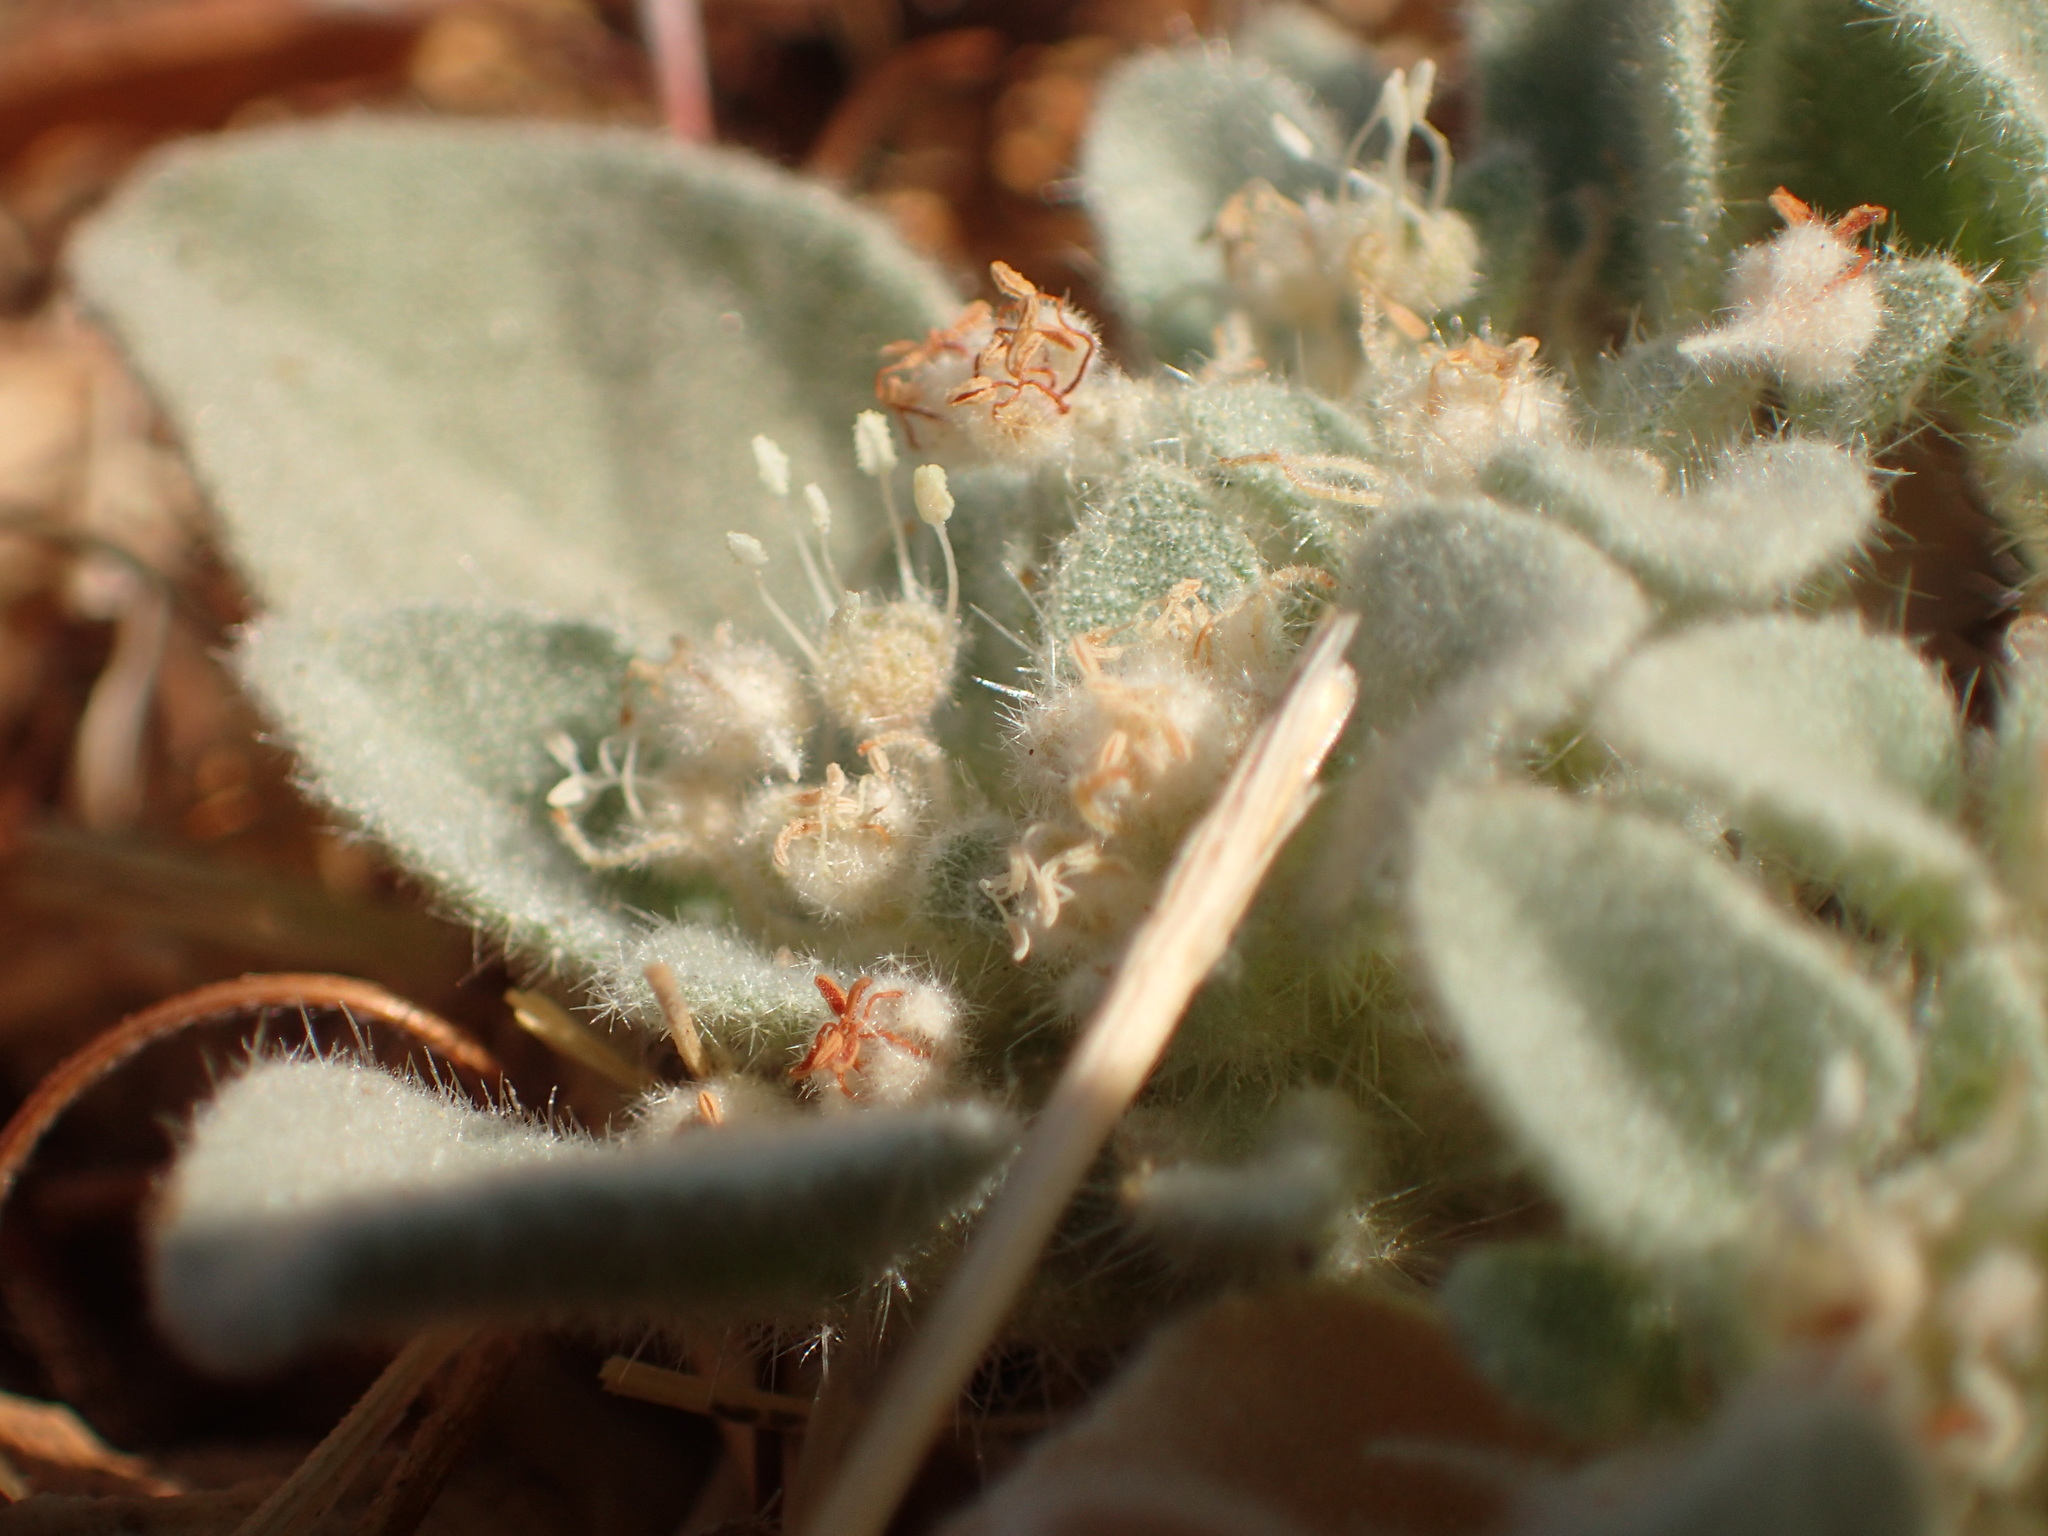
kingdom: Plantae
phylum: Tracheophyta
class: Magnoliopsida
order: Malpighiales
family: Euphorbiaceae
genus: Croton
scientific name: Croton setiger
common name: Dove weed
